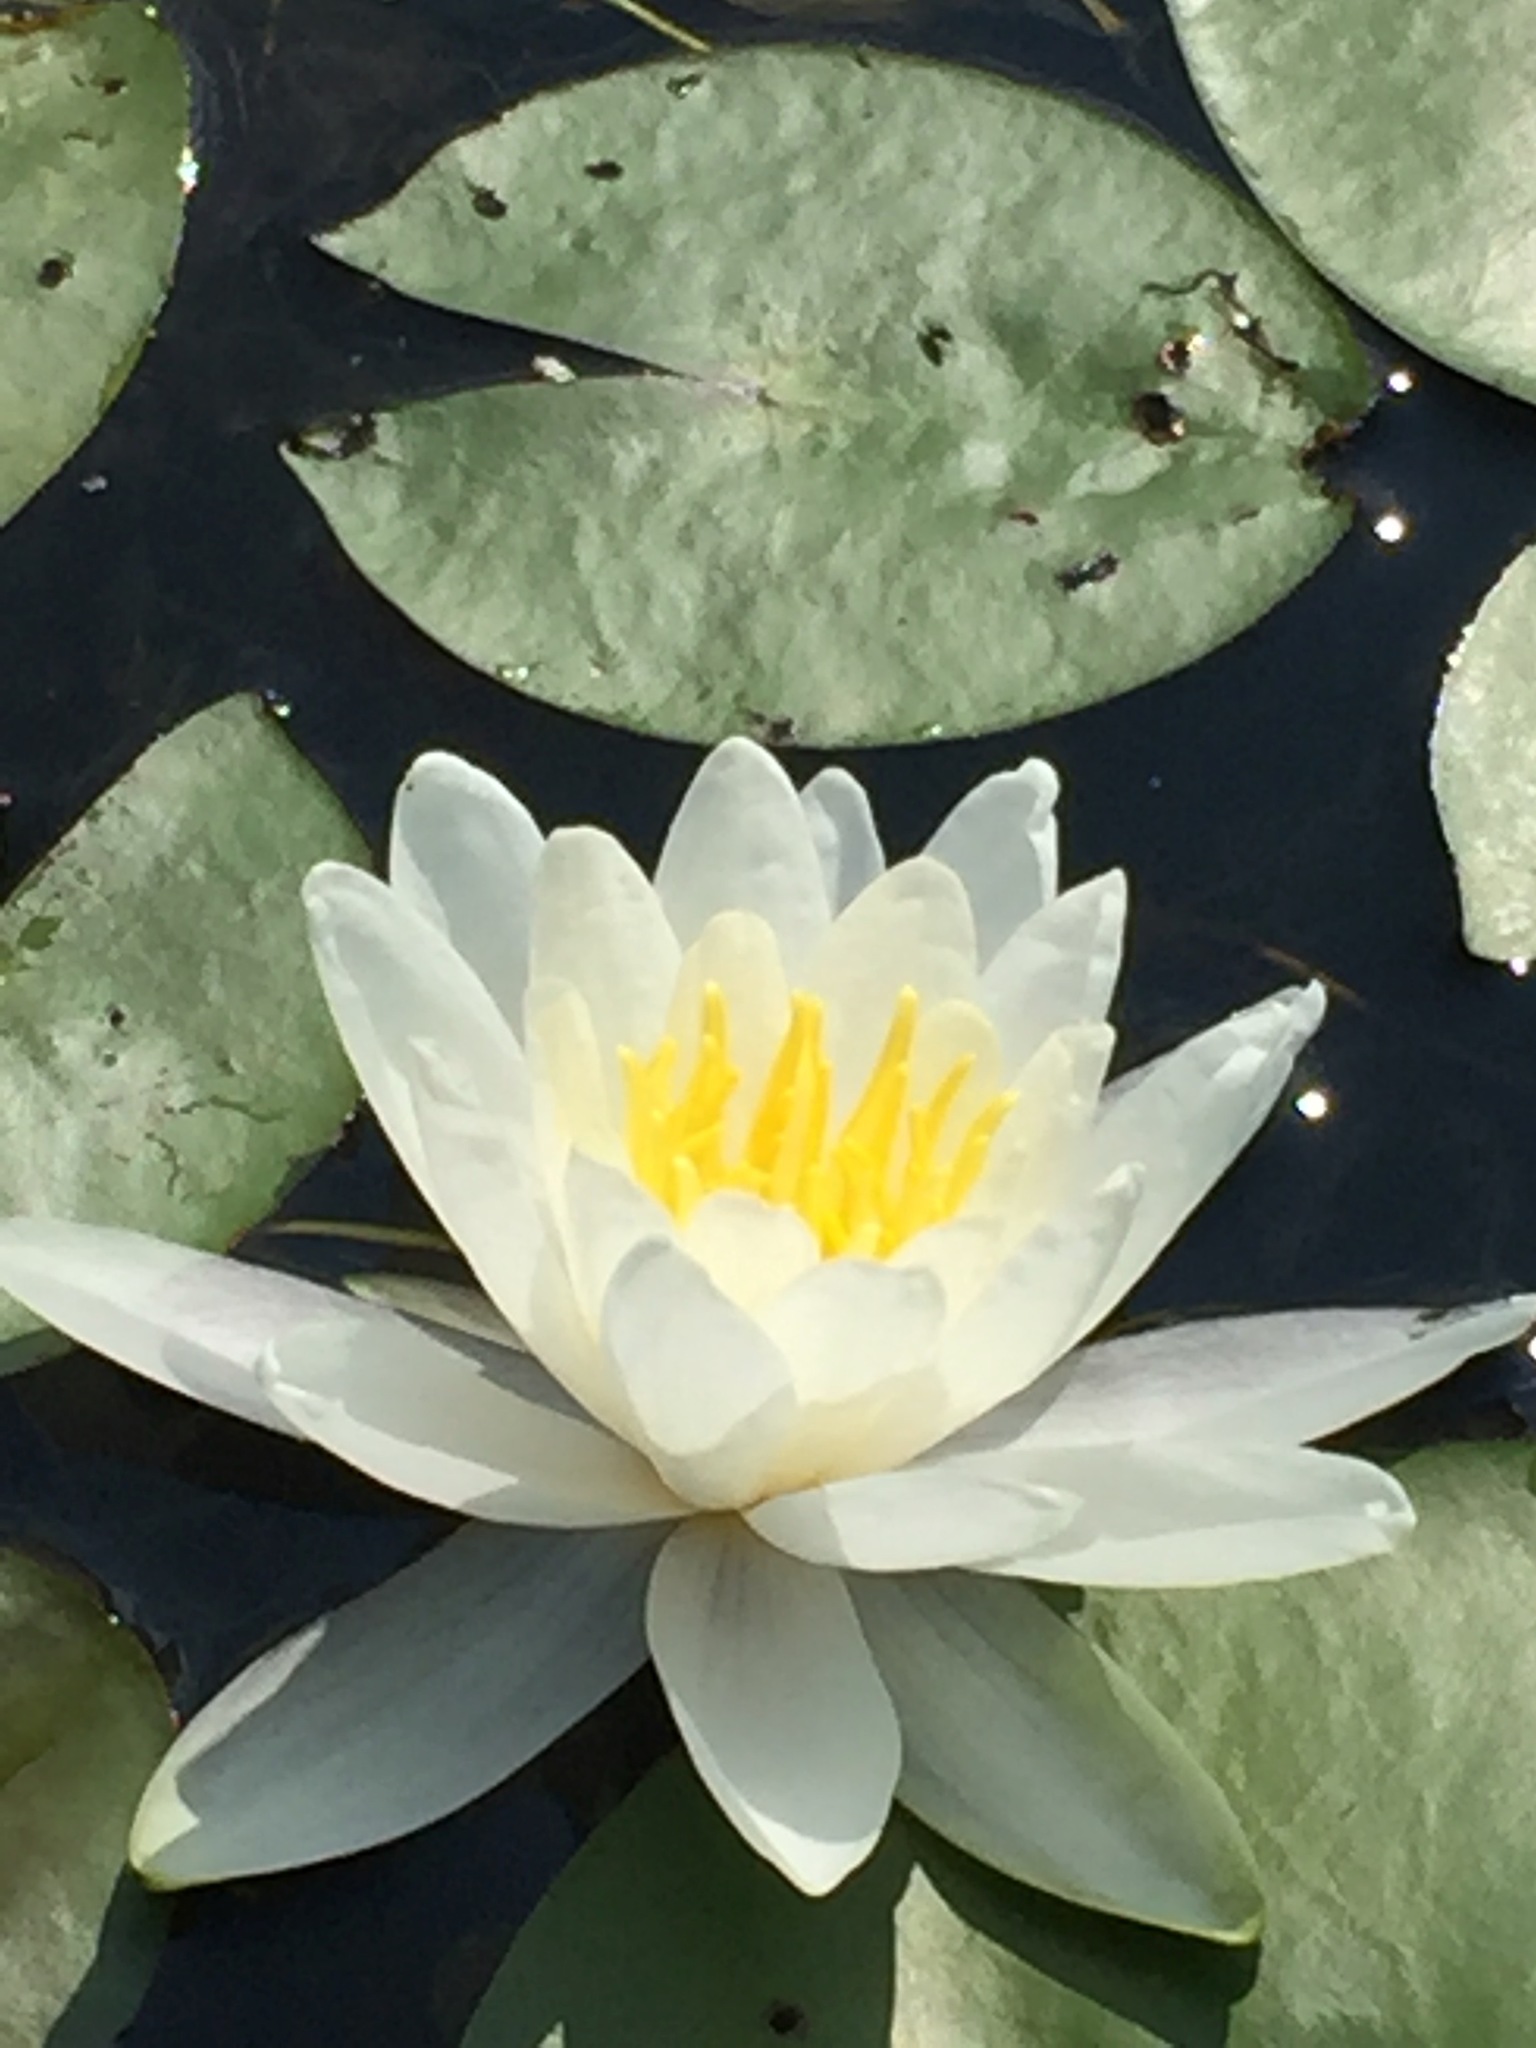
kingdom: Plantae
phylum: Tracheophyta
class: Magnoliopsida
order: Nymphaeales
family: Nymphaeaceae
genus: Nymphaea
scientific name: Nymphaea odorata
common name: Fragrant water-lily
